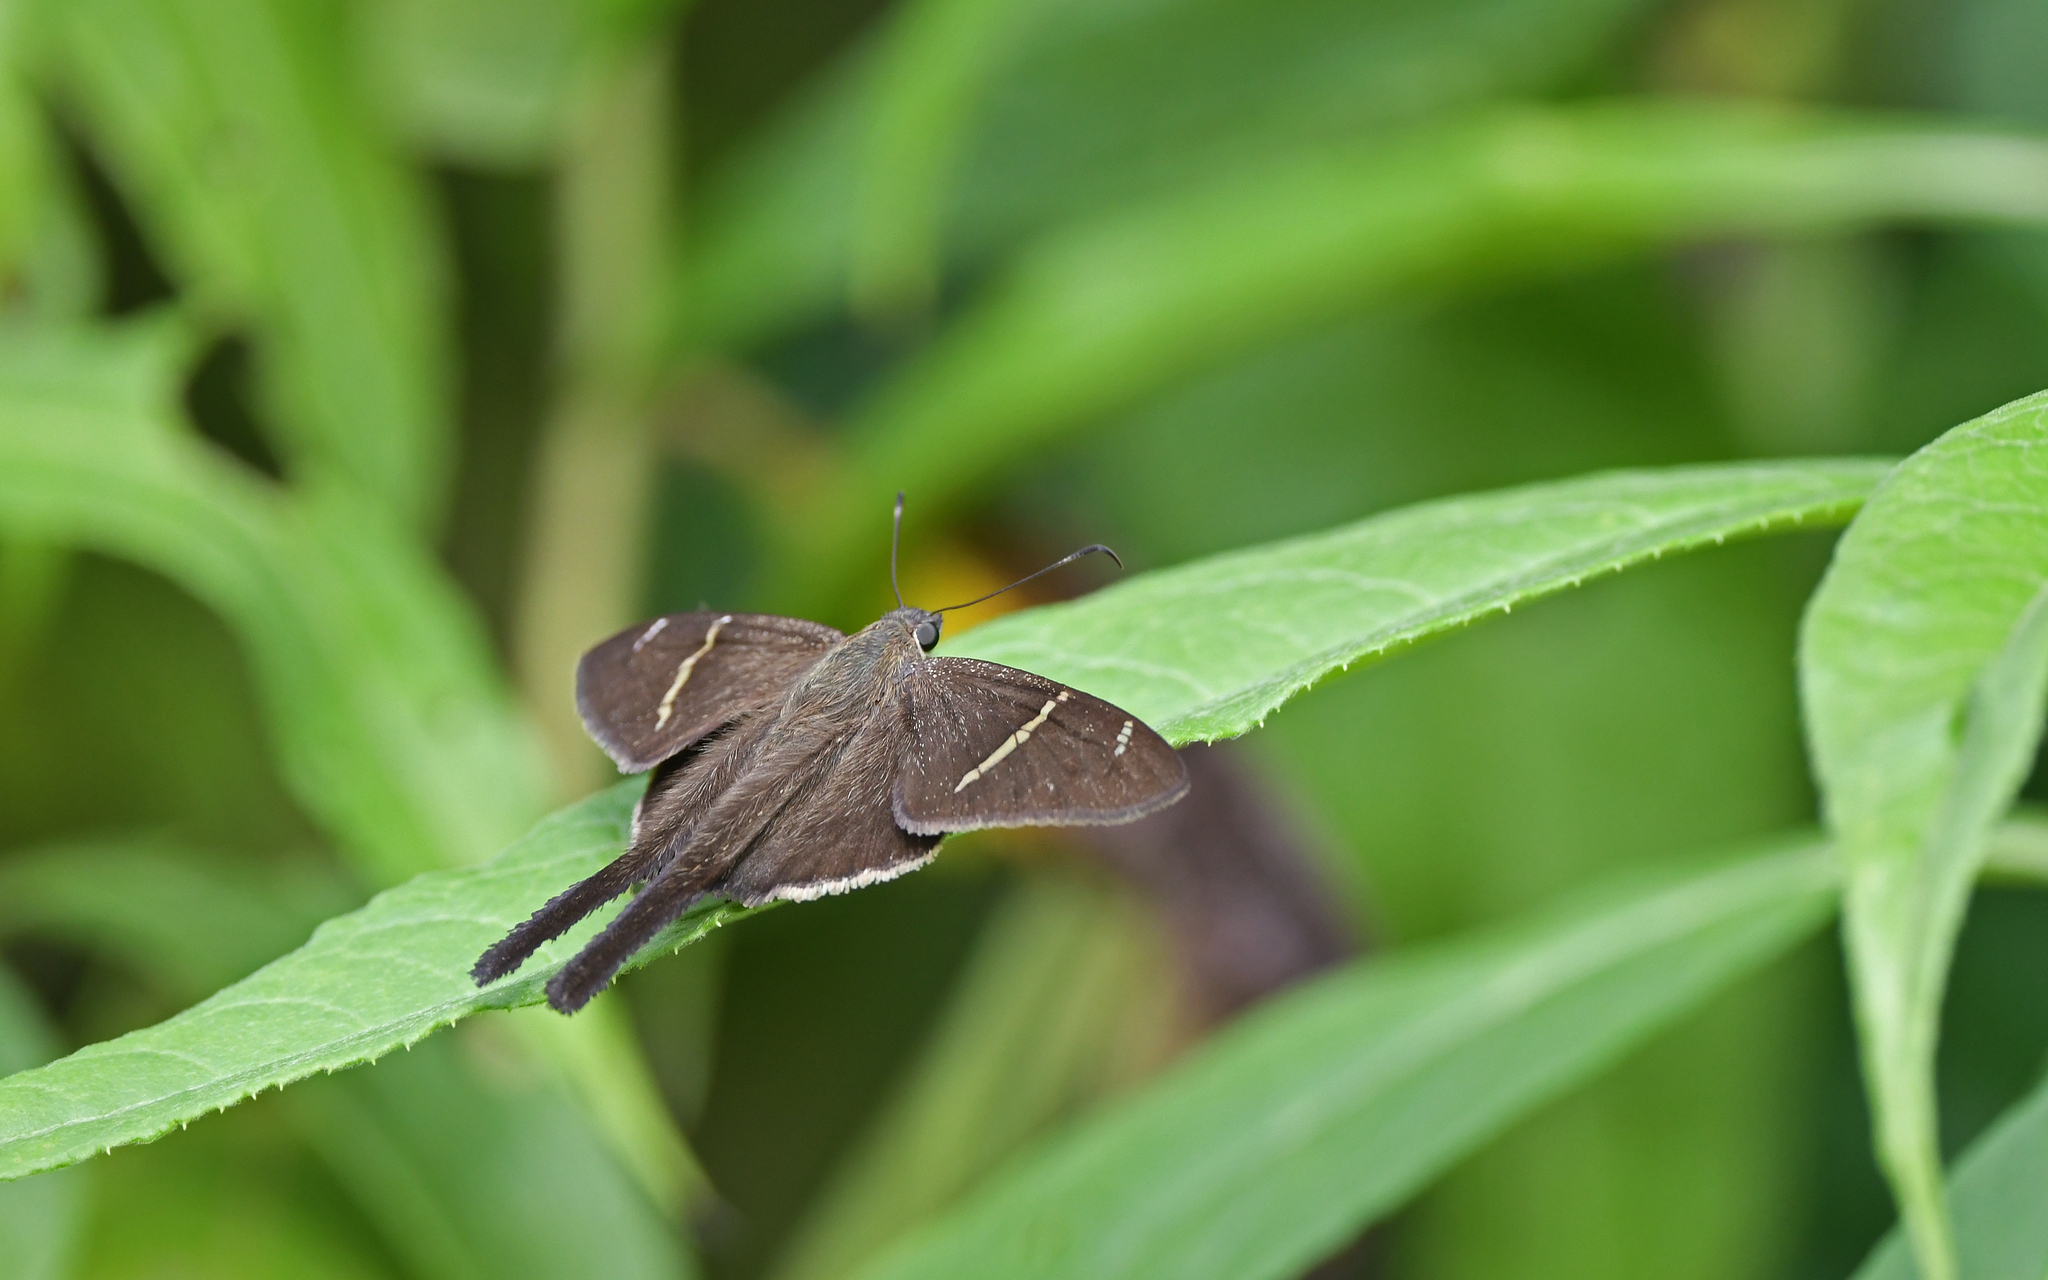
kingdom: Animalia
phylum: Arthropoda
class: Insecta
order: Lepidoptera
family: Hesperiidae
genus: Urbanus
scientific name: Urbanus teleus
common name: Teleus longtail
